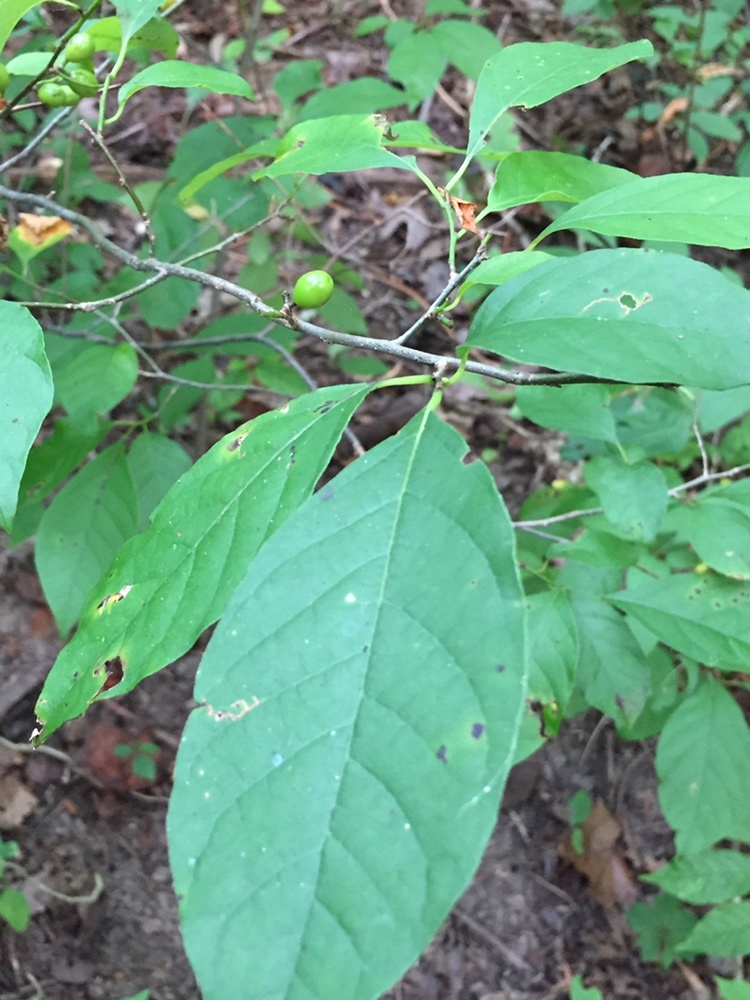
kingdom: Plantae
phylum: Tracheophyta
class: Magnoliopsida
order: Laurales
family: Lauraceae
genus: Lindera
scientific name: Lindera benzoin
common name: Spicebush
